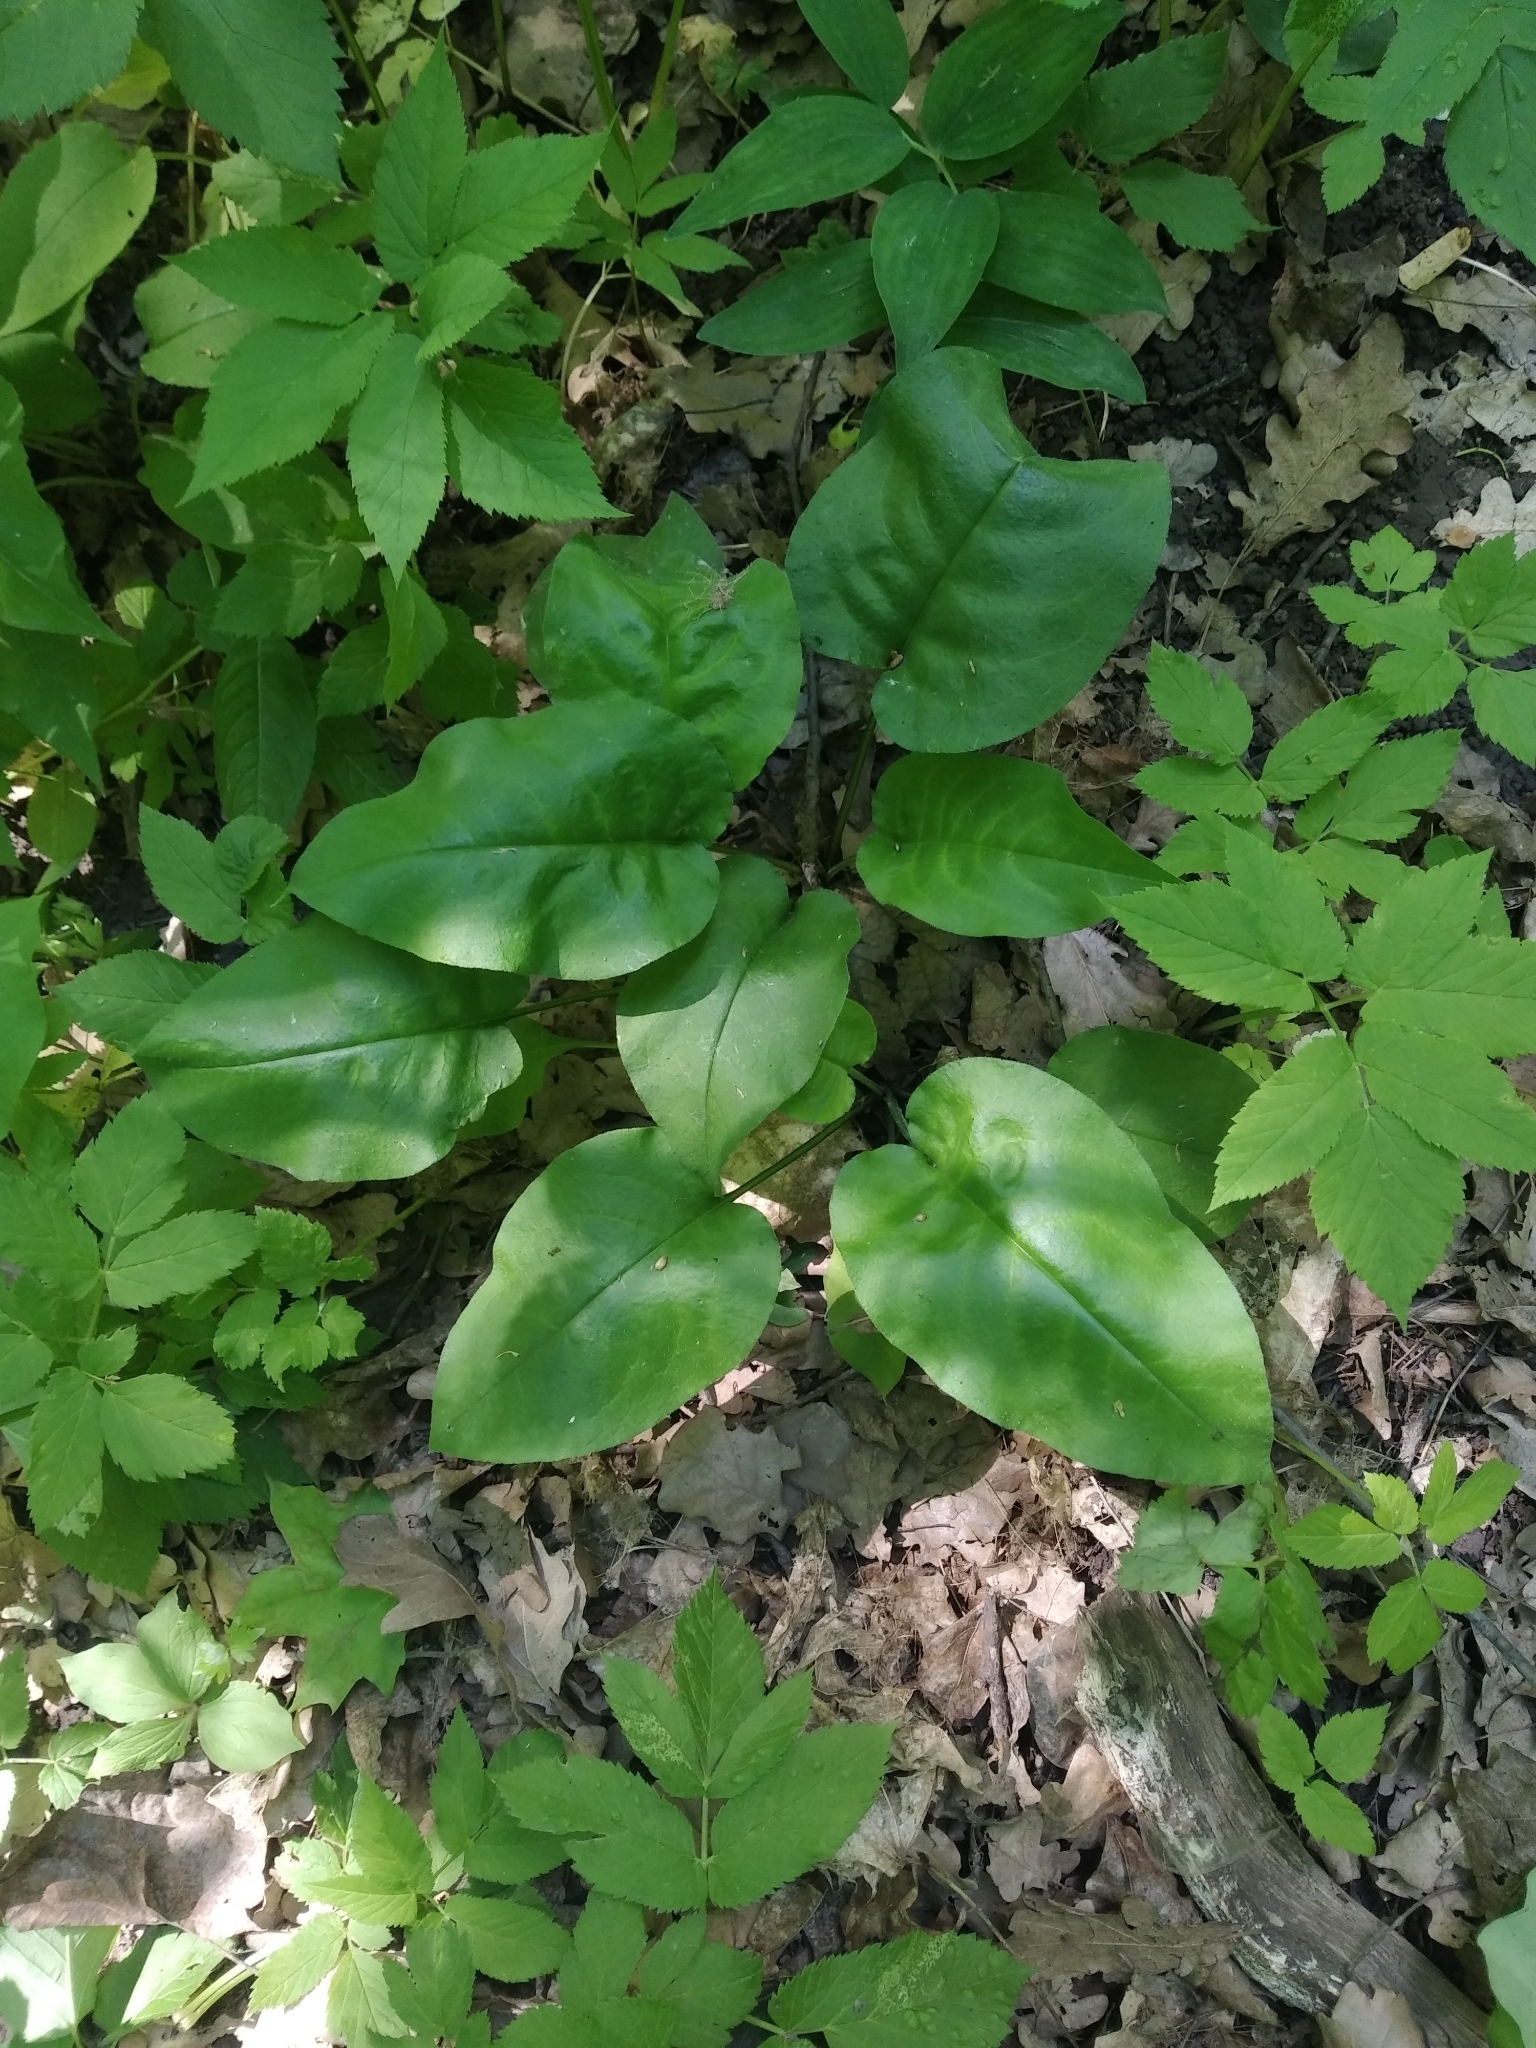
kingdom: Plantae
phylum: Tracheophyta
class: Magnoliopsida
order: Boraginales
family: Boraginaceae
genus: Pulmonaria
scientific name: Pulmonaria obscura
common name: Suffolk lungwort
